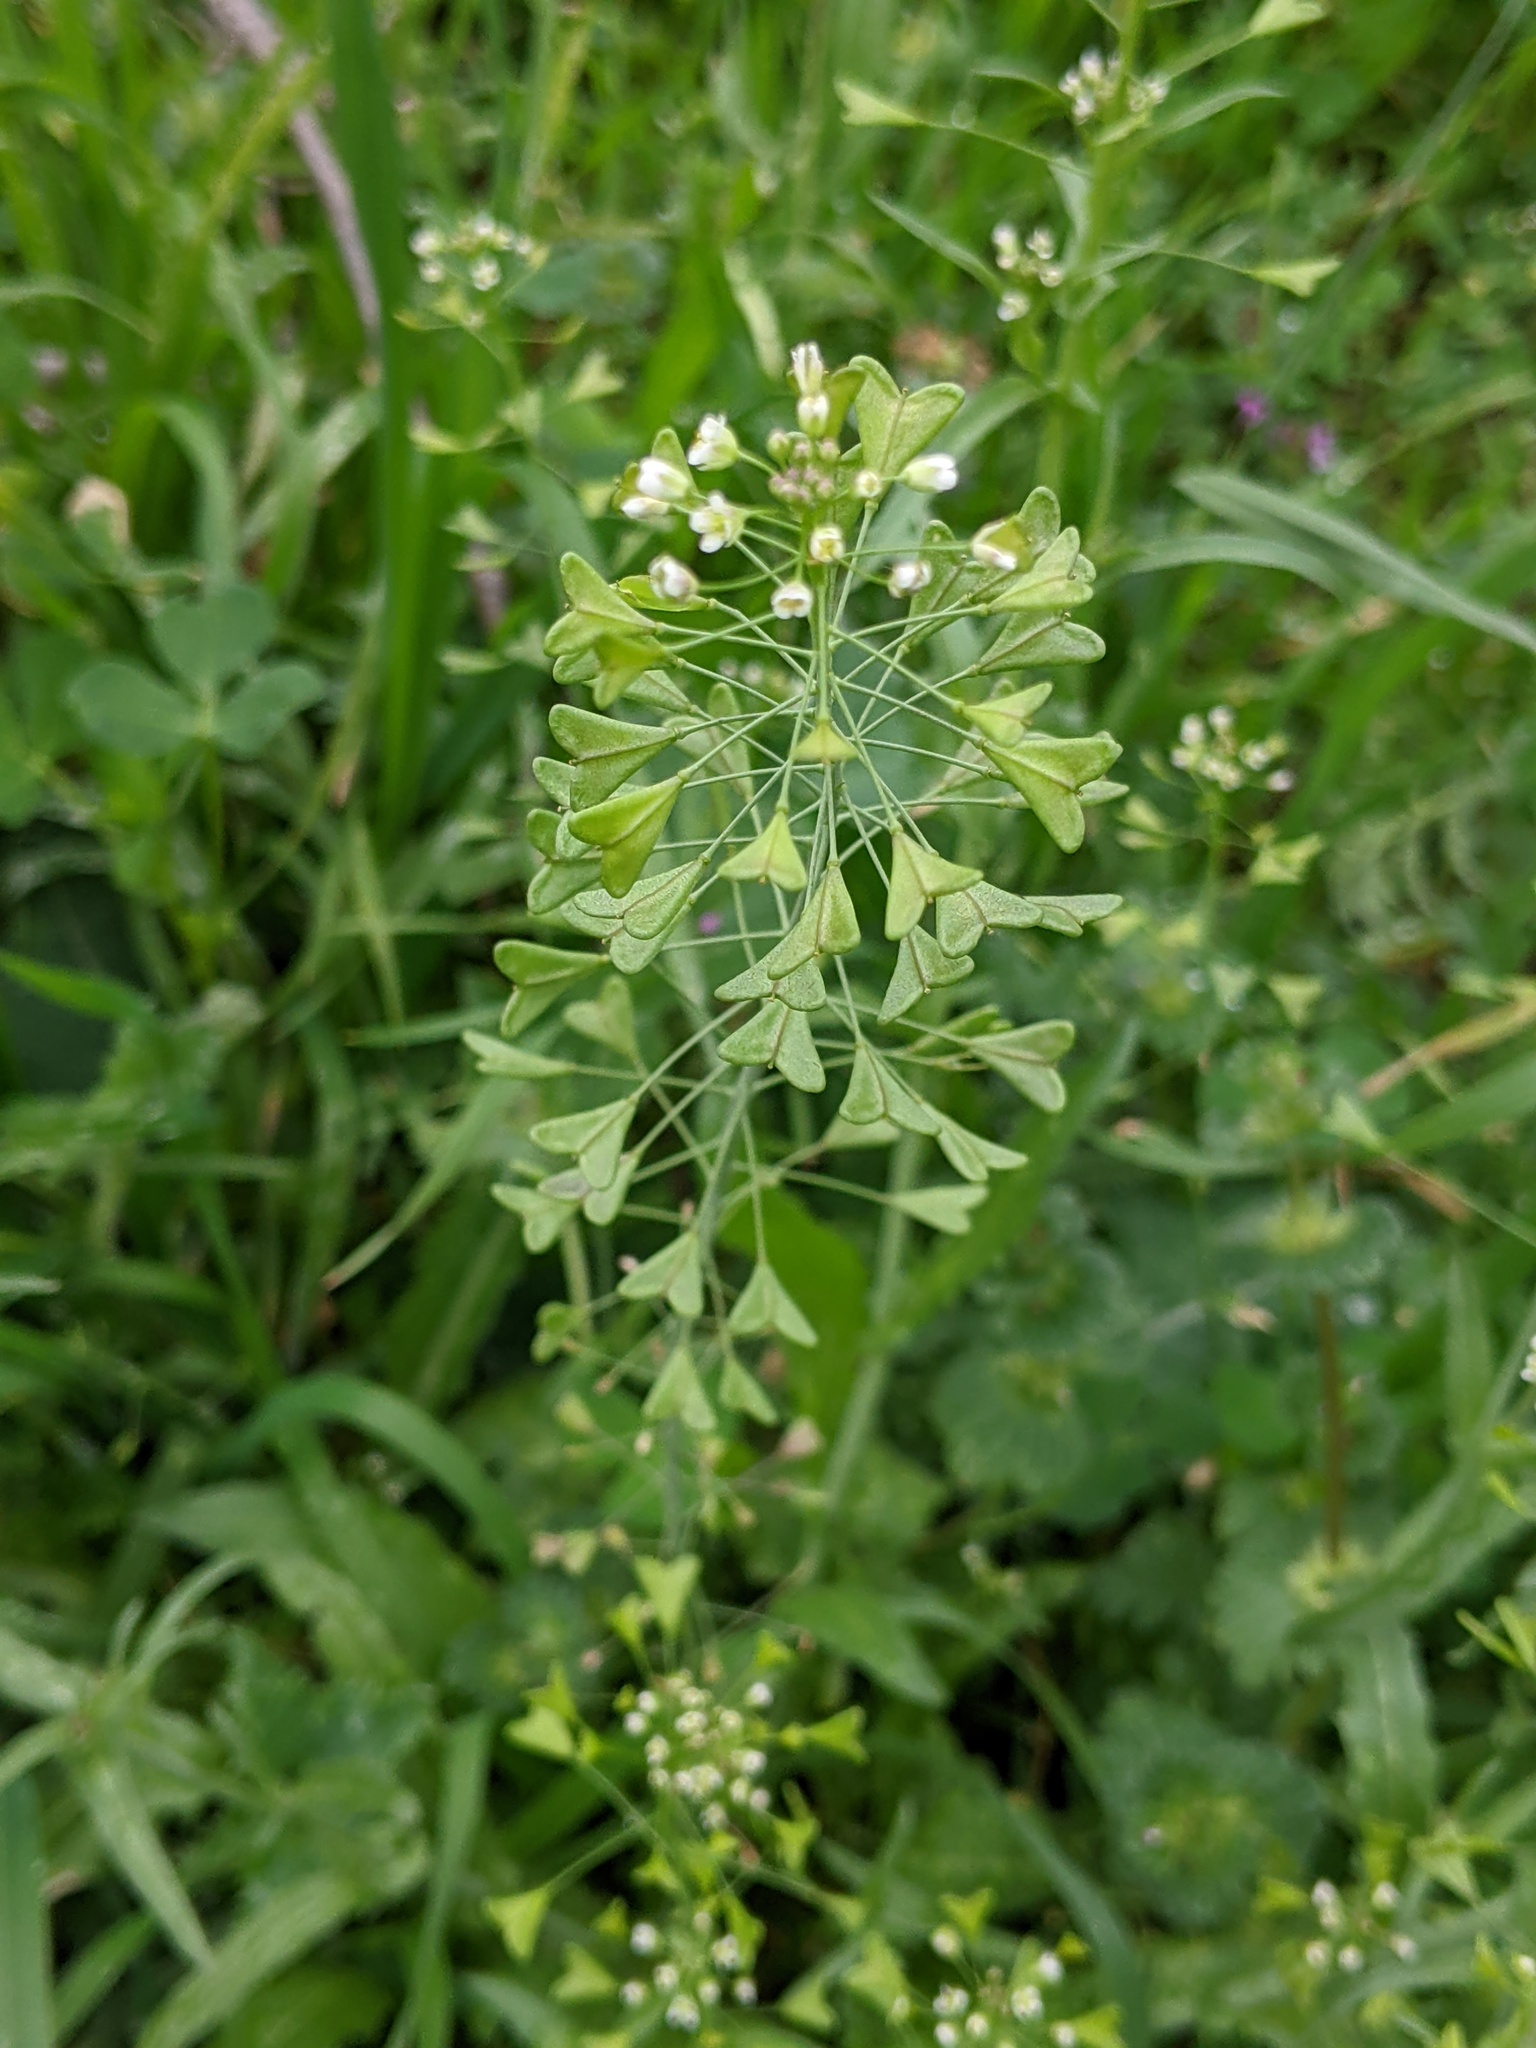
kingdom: Plantae
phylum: Tracheophyta
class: Magnoliopsida
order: Brassicales
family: Brassicaceae
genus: Capsella
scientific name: Capsella bursa-pastoris
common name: Shepherd's purse
